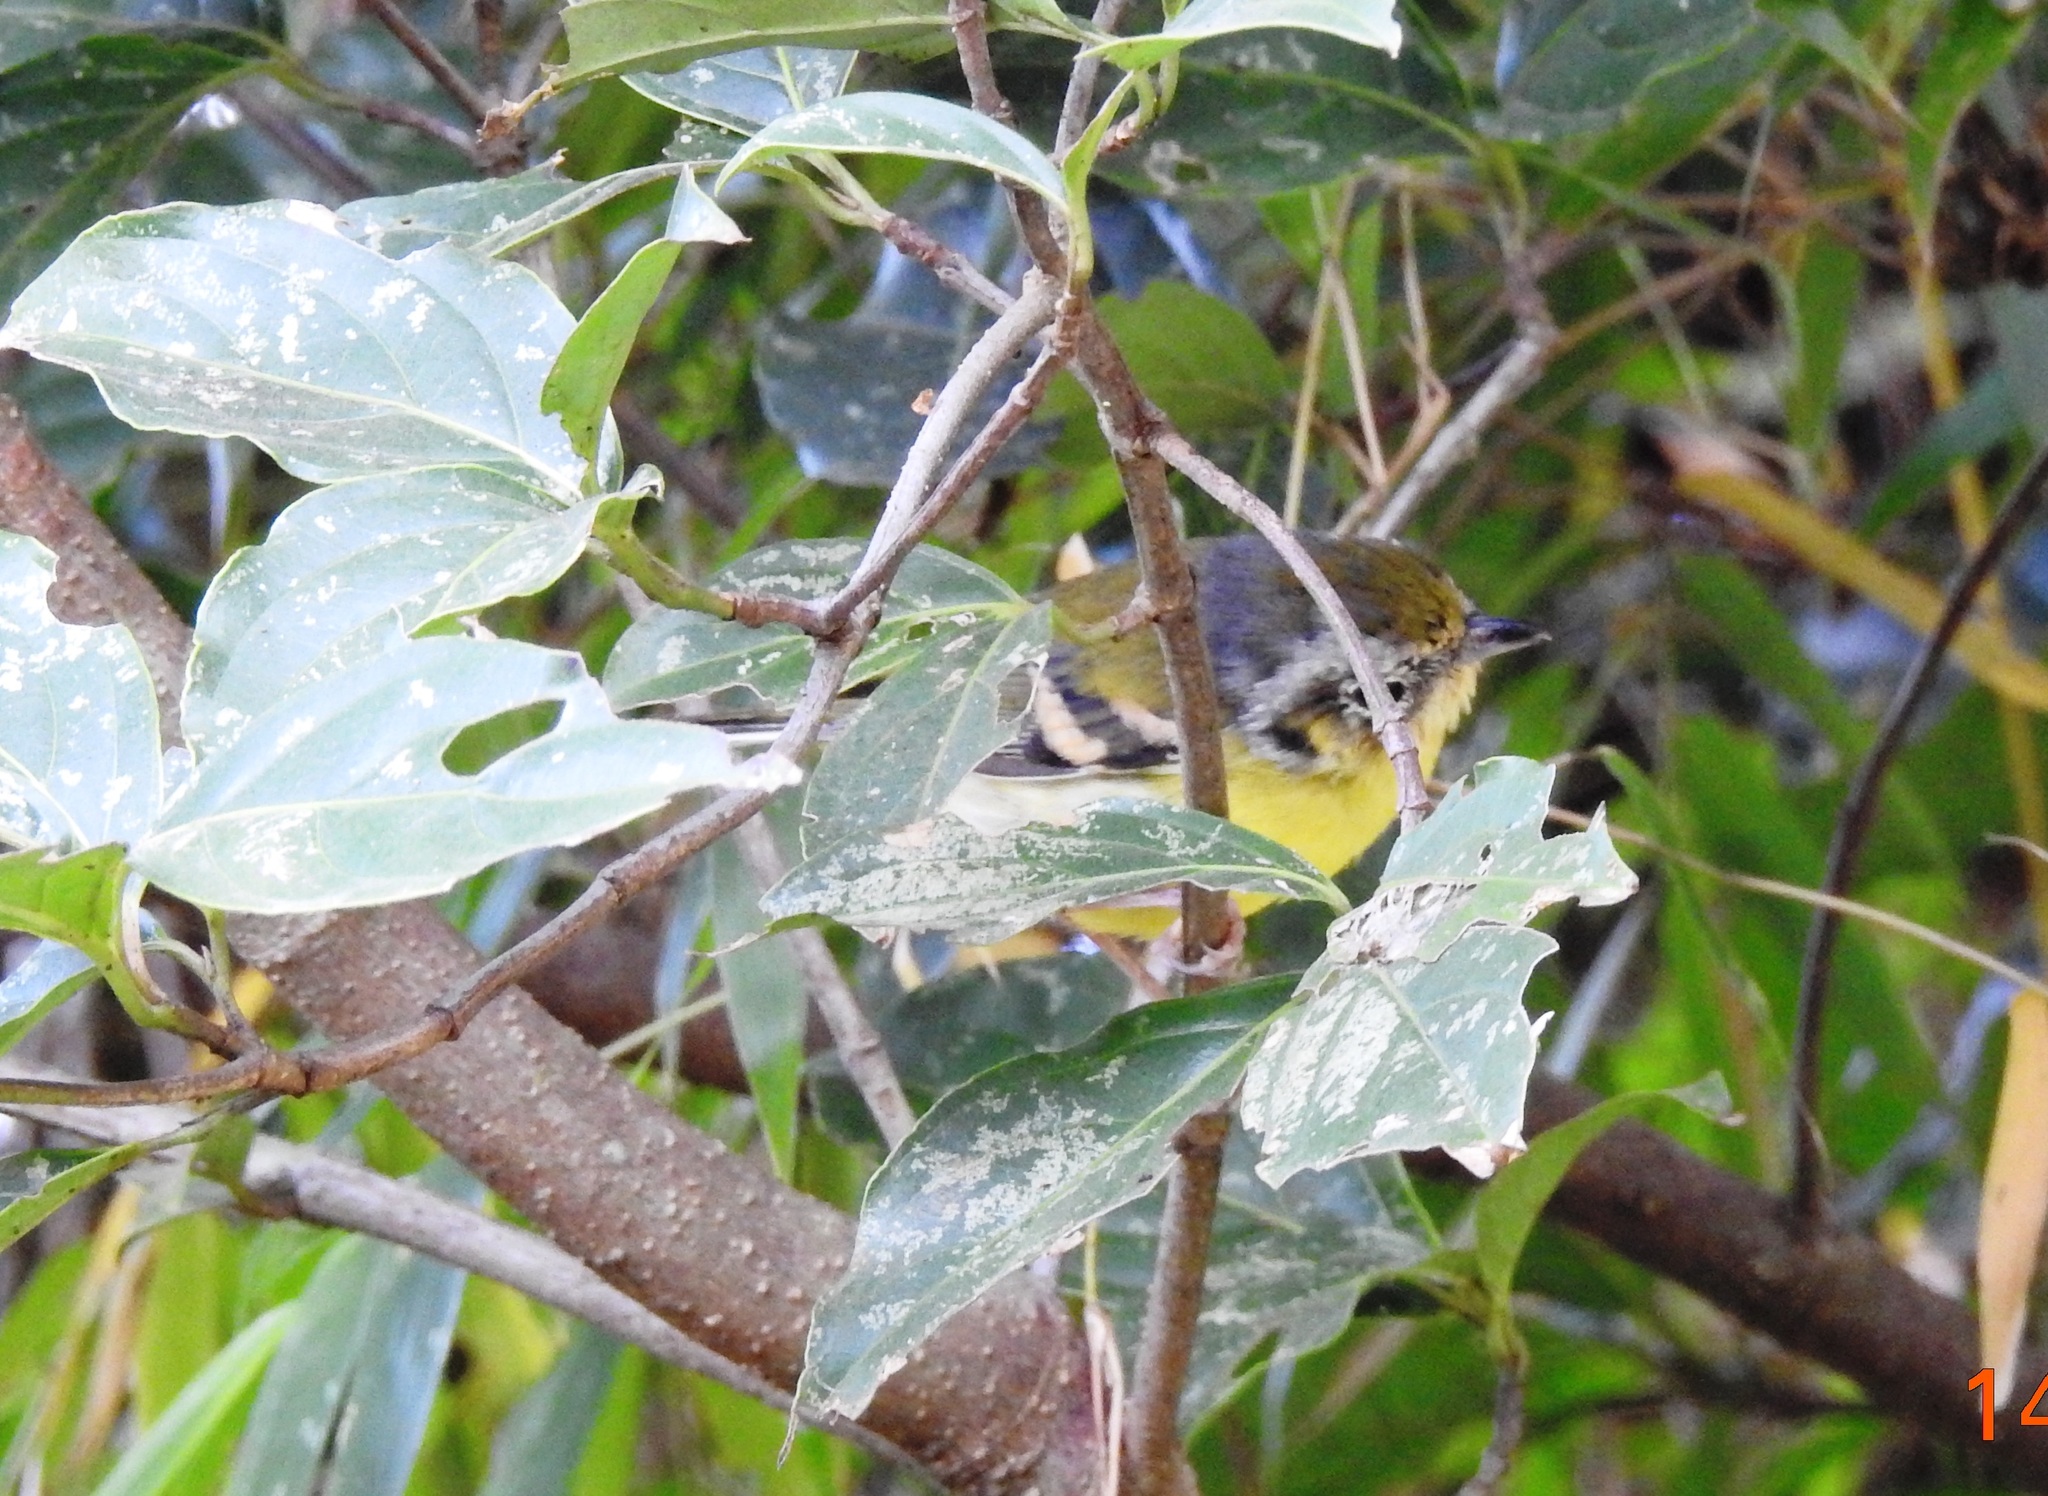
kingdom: Animalia
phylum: Chordata
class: Aves
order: Passeriformes
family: Vireonidae
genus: Pteruthius
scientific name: Pteruthius melanotis
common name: Black-eared shrike-babbler
